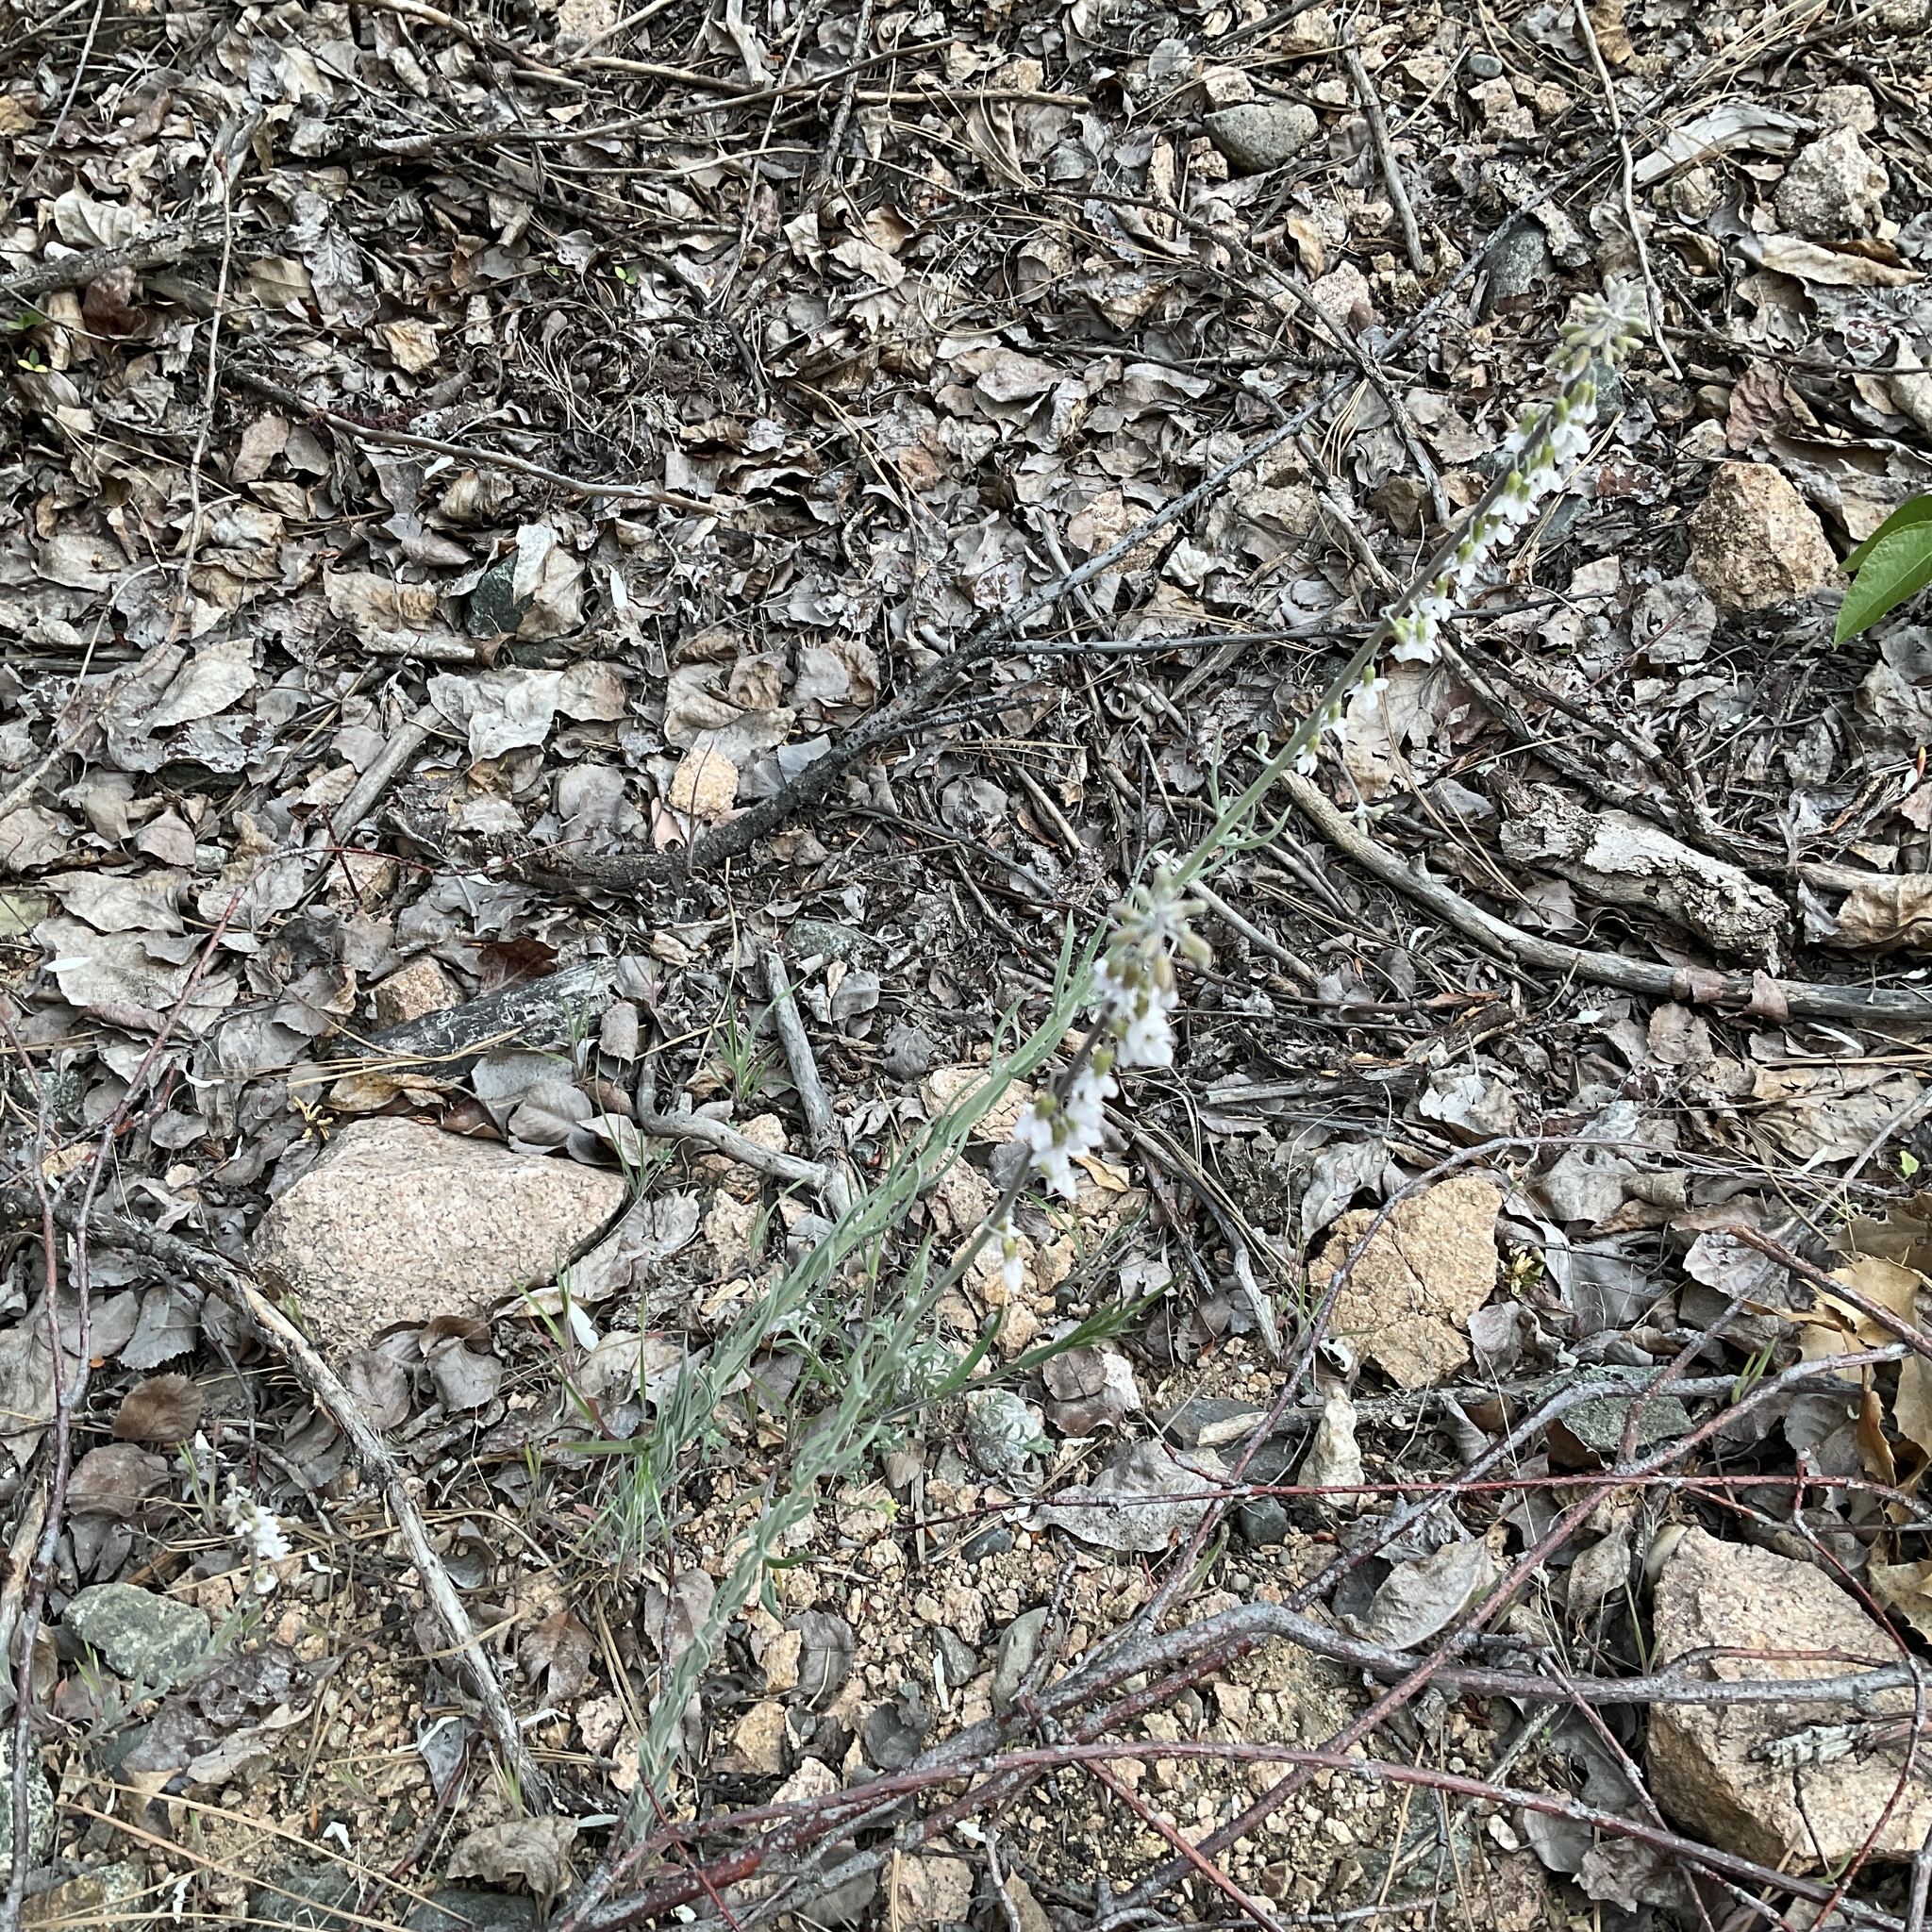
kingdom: Plantae
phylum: Tracheophyta
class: Magnoliopsida
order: Brassicales
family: Brassicaceae
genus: Boechera
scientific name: Boechera retrofracta
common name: Dangling suncress
